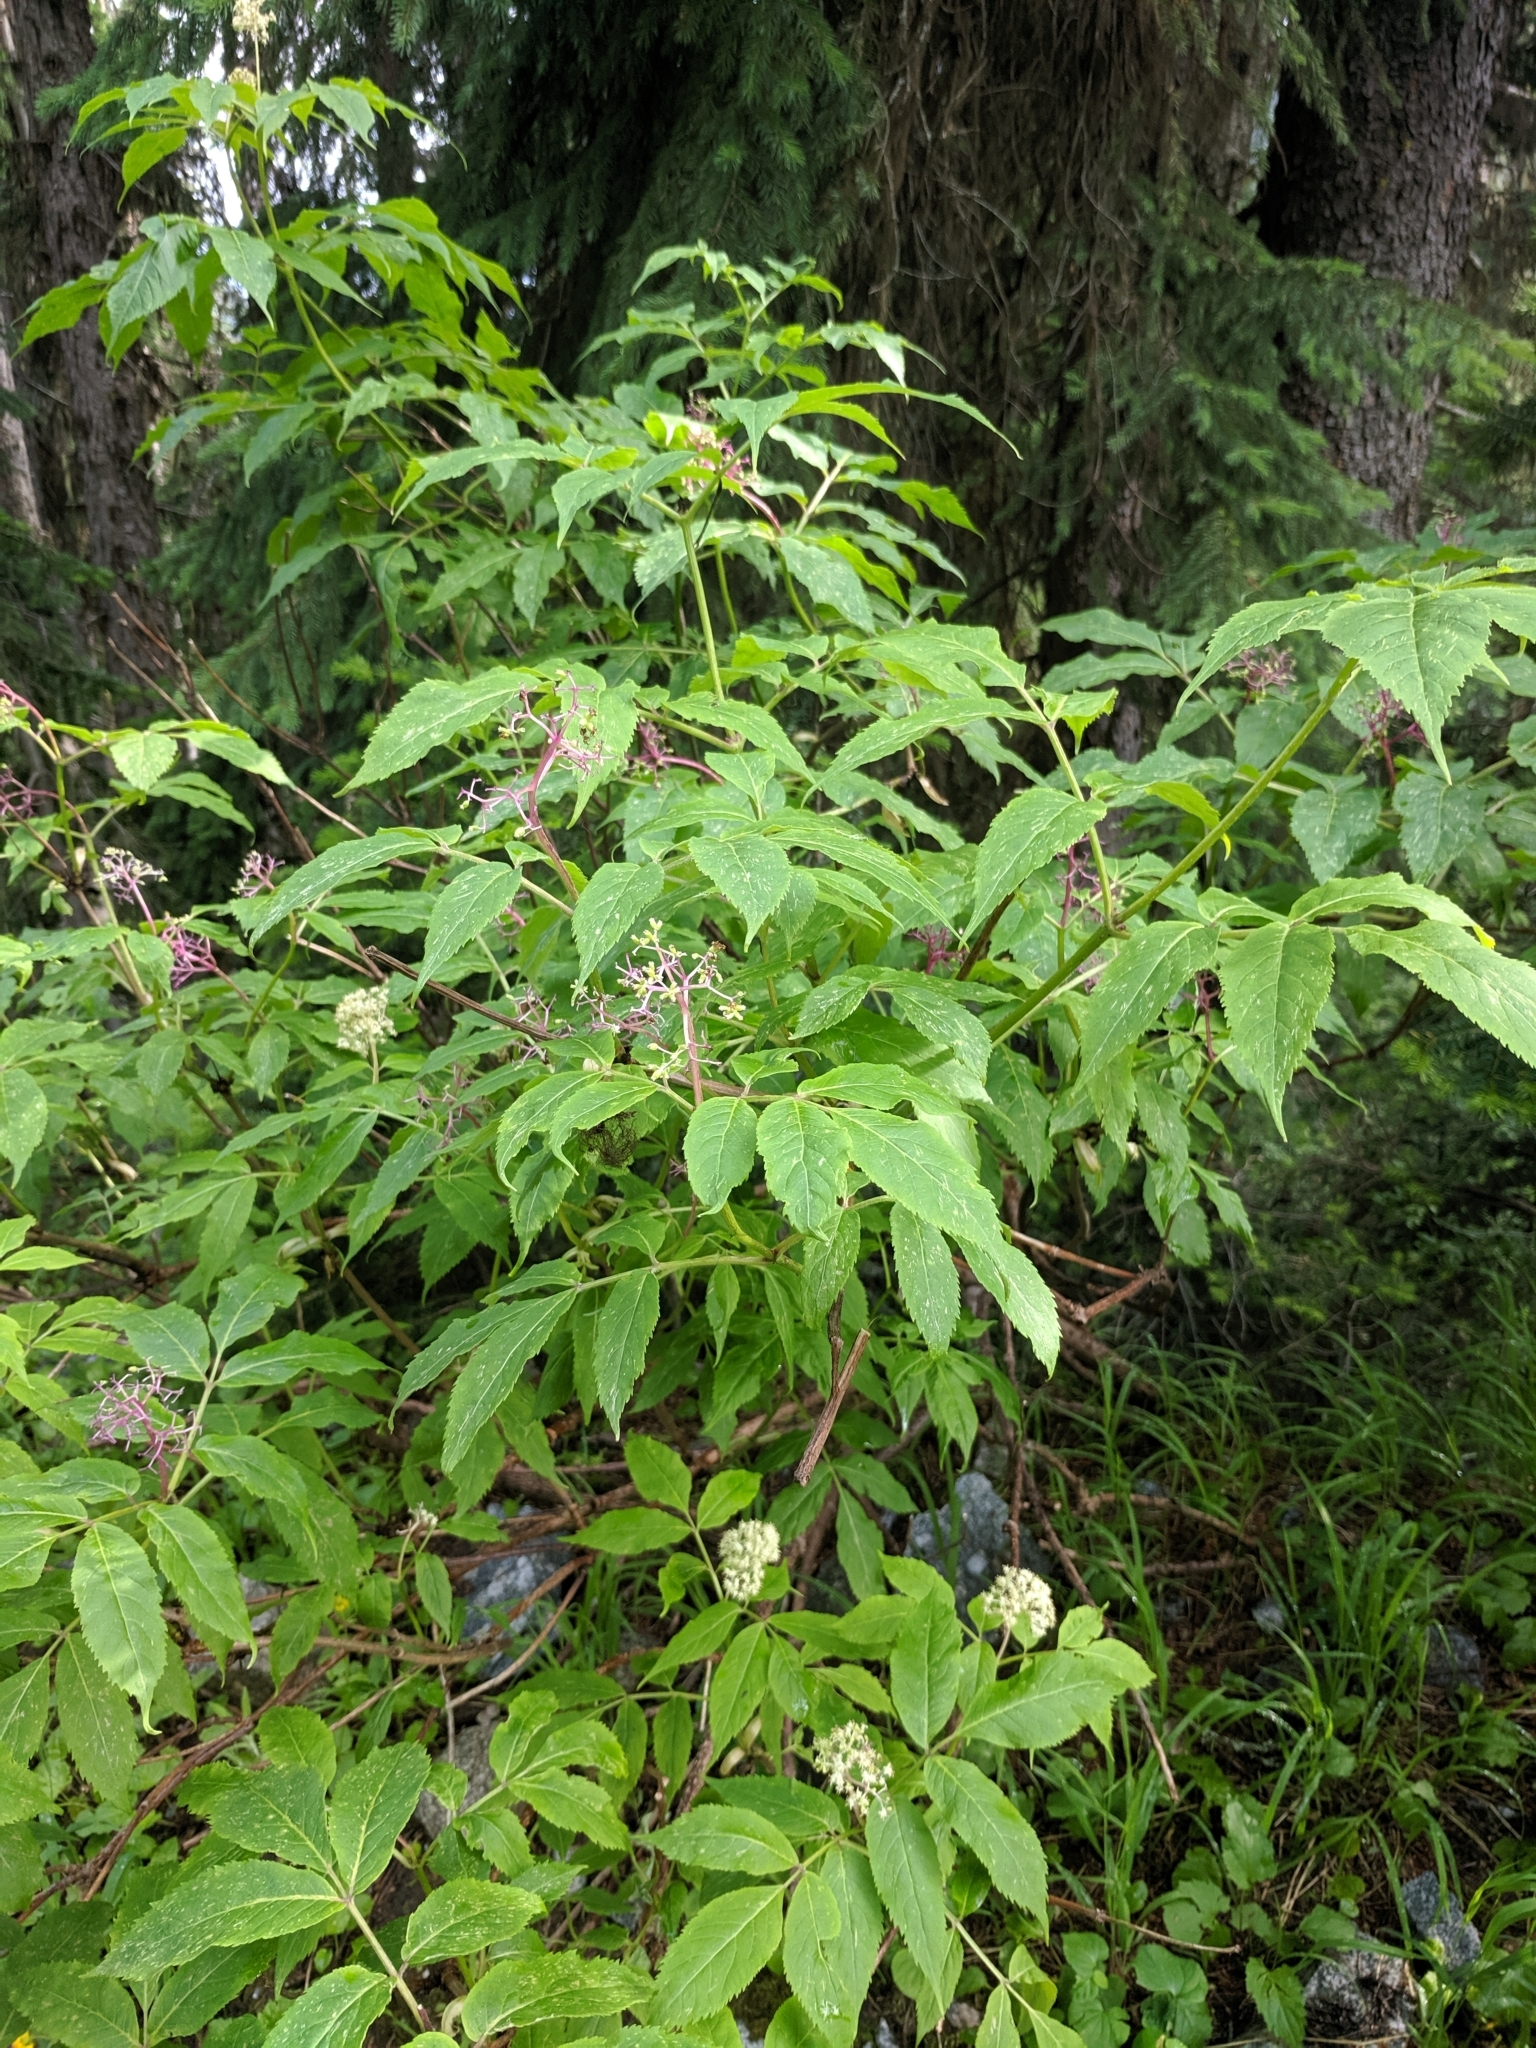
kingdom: Plantae
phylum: Tracheophyta
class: Magnoliopsida
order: Dipsacales
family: Viburnaceae
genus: Sambucus
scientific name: Sambucus racemosa
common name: Red-berried elder
